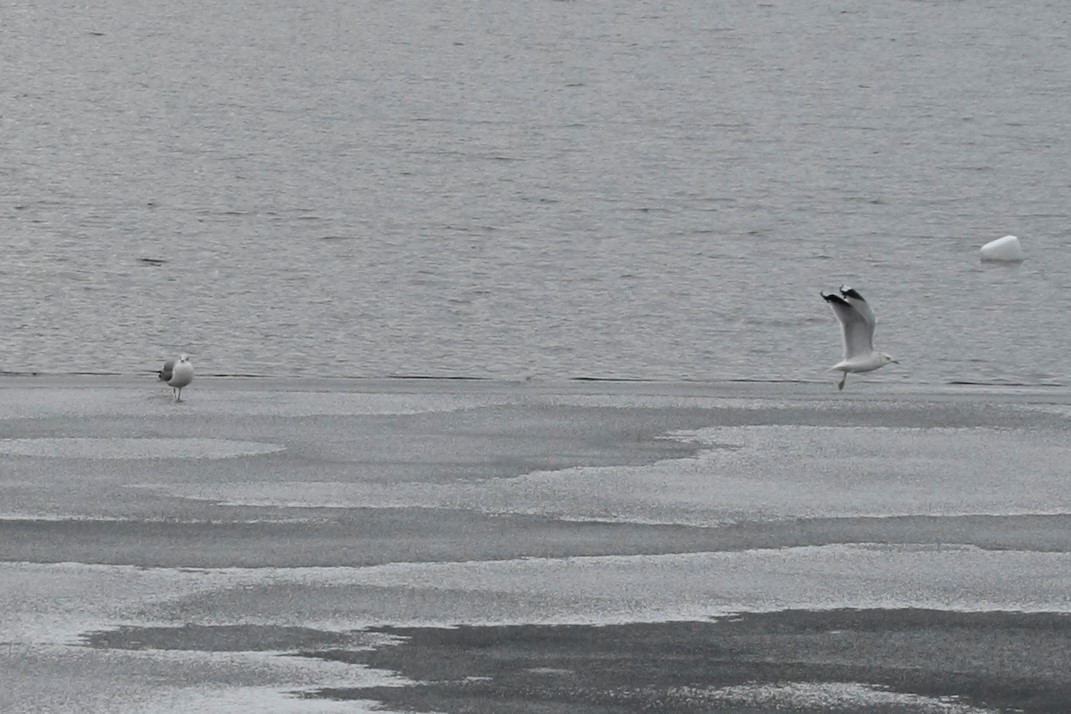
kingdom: Animalia
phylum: Chordata
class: Aves
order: Charadriiformes
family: Laridae
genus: Larus
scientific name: Larus canus
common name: Mew gull
